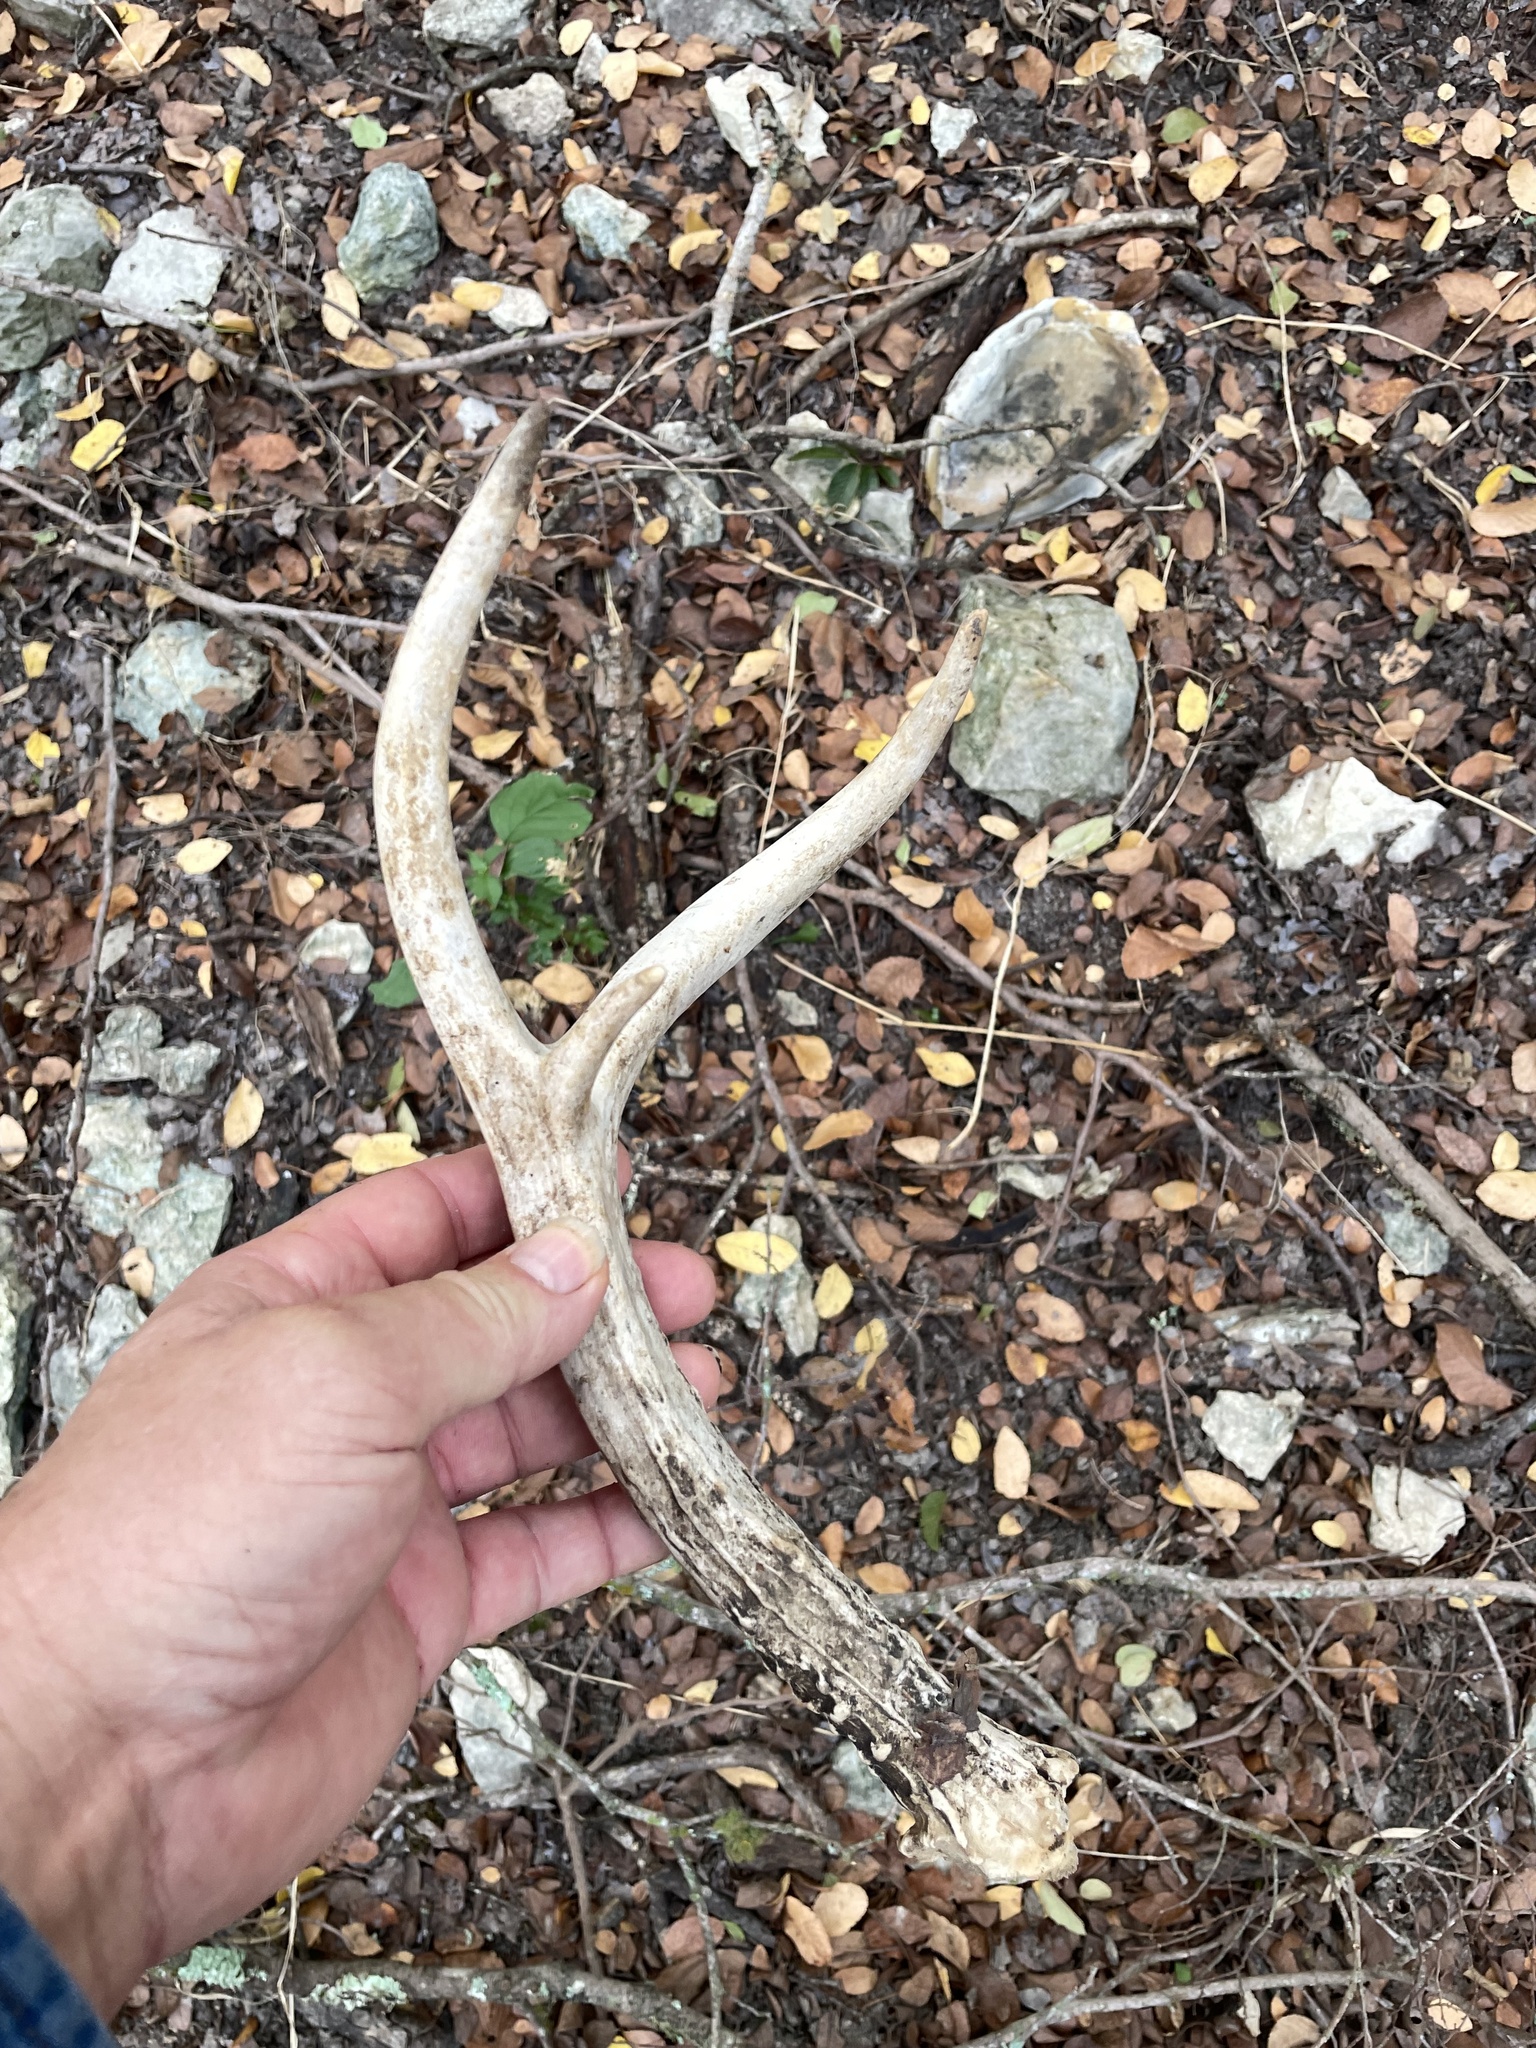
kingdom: Animalia
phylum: Chordata
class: Mammalia
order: Artiodactyla
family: Cervidae
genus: Odocoileus
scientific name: Odocoileus virginianus
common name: White-tailed deer
